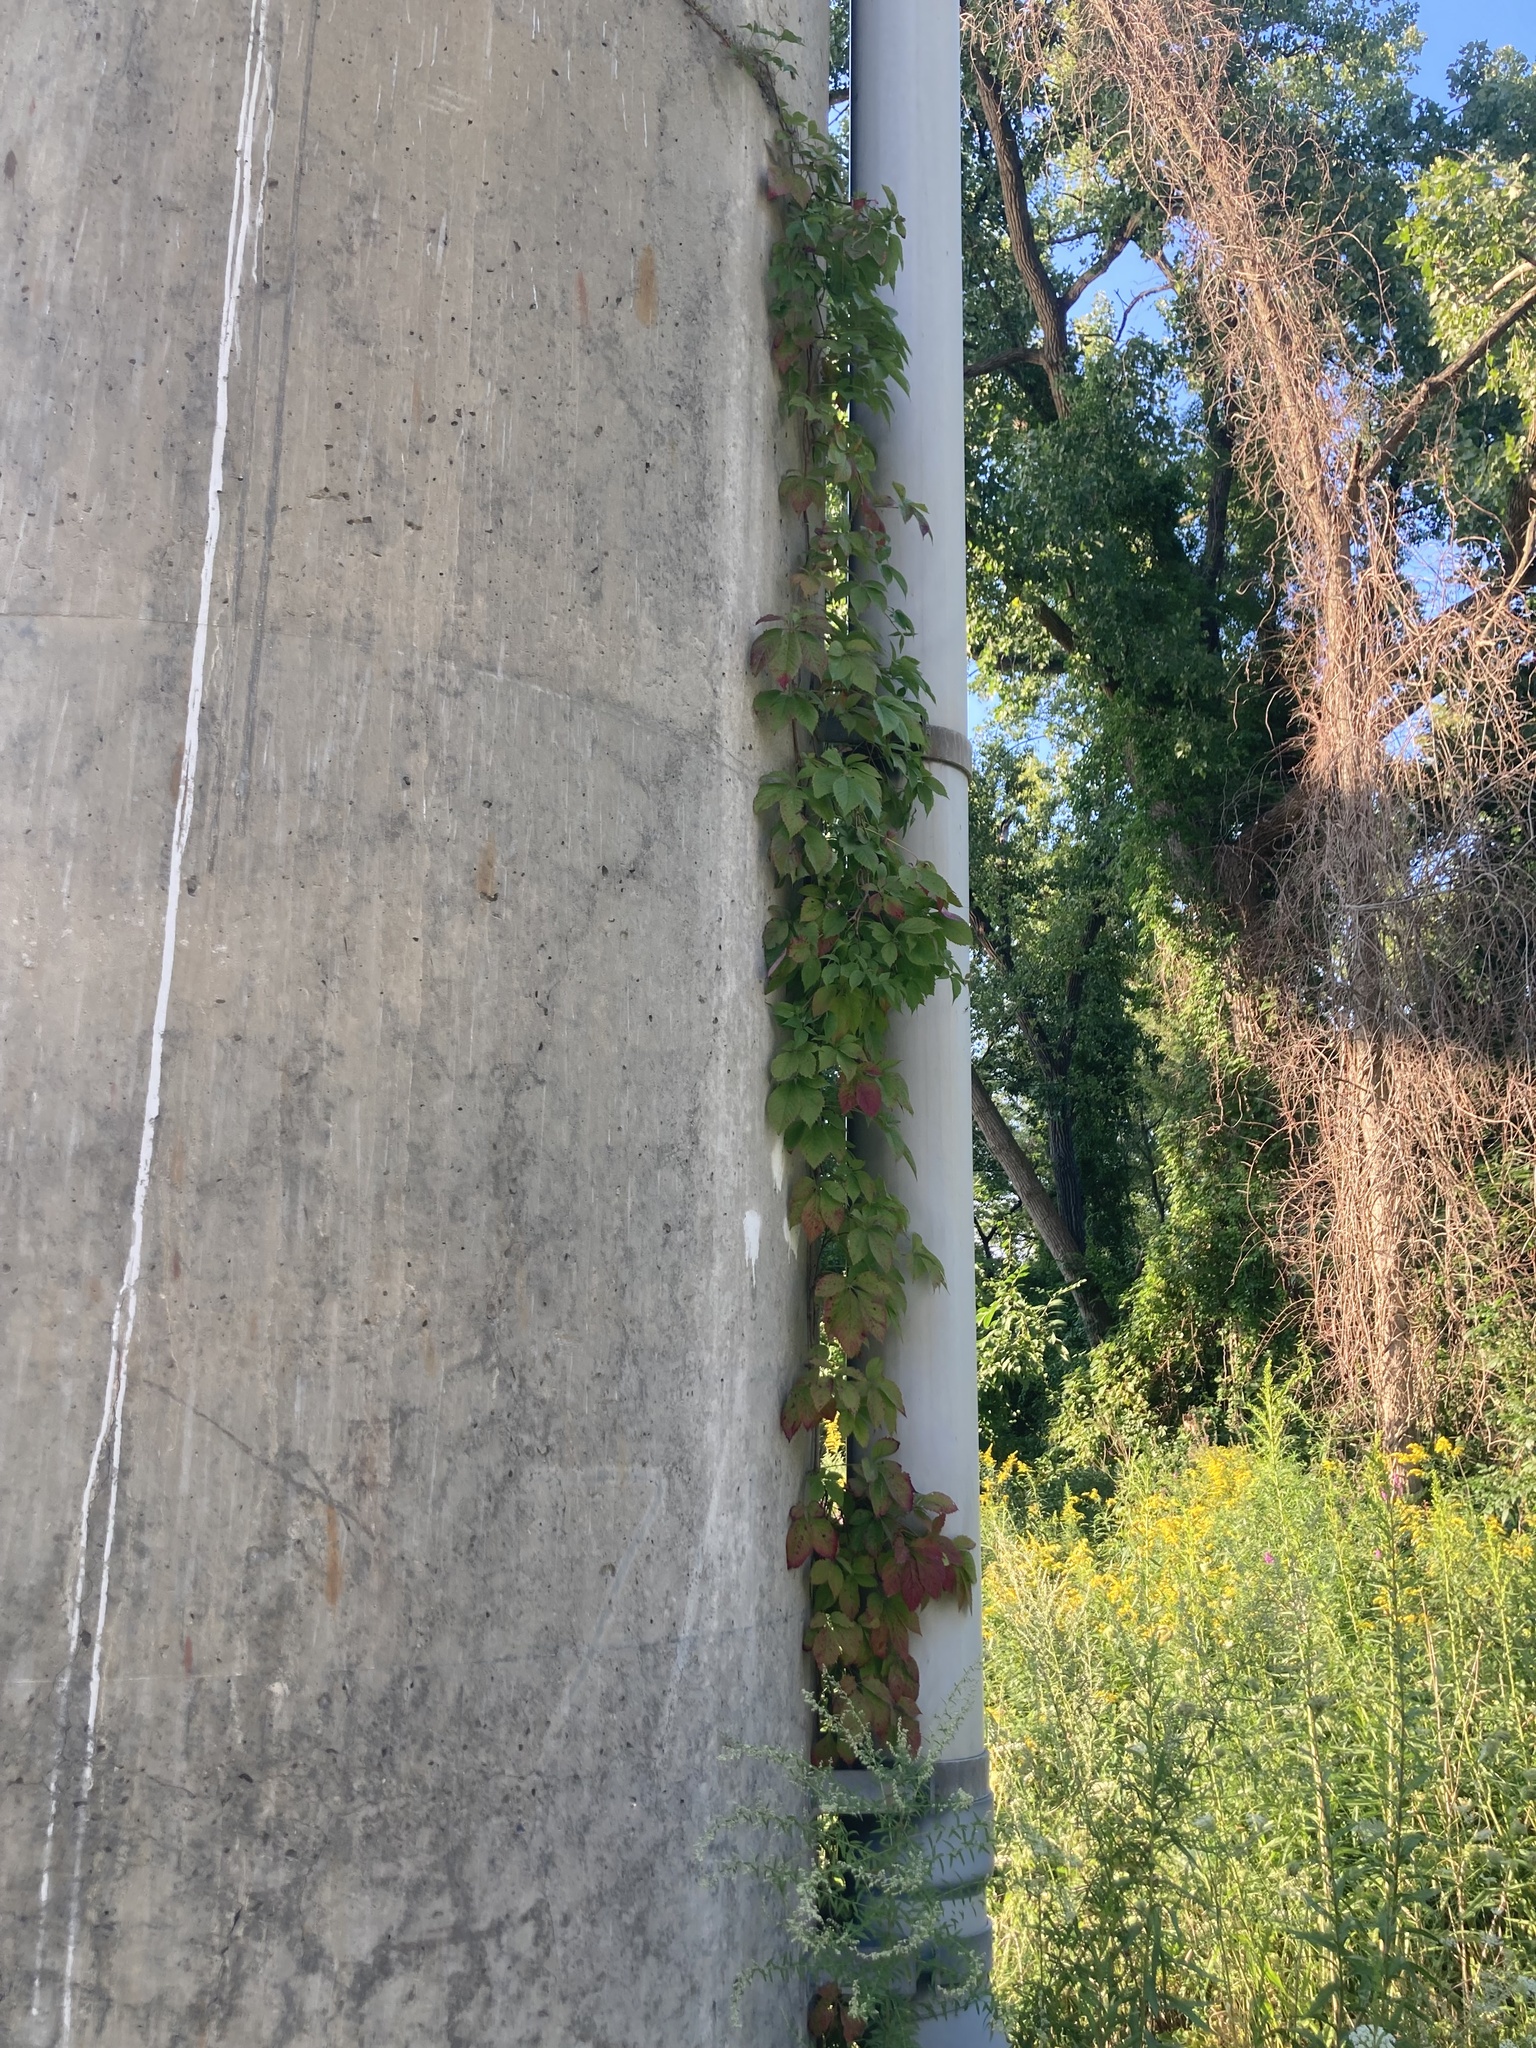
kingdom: Plantae
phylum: Tracheophyta
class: Magnoliopsida
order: Vitales
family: Vitaceae
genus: Parthenocissus
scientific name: Parthenocissus quinquefolia
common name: Virginia-creeper
